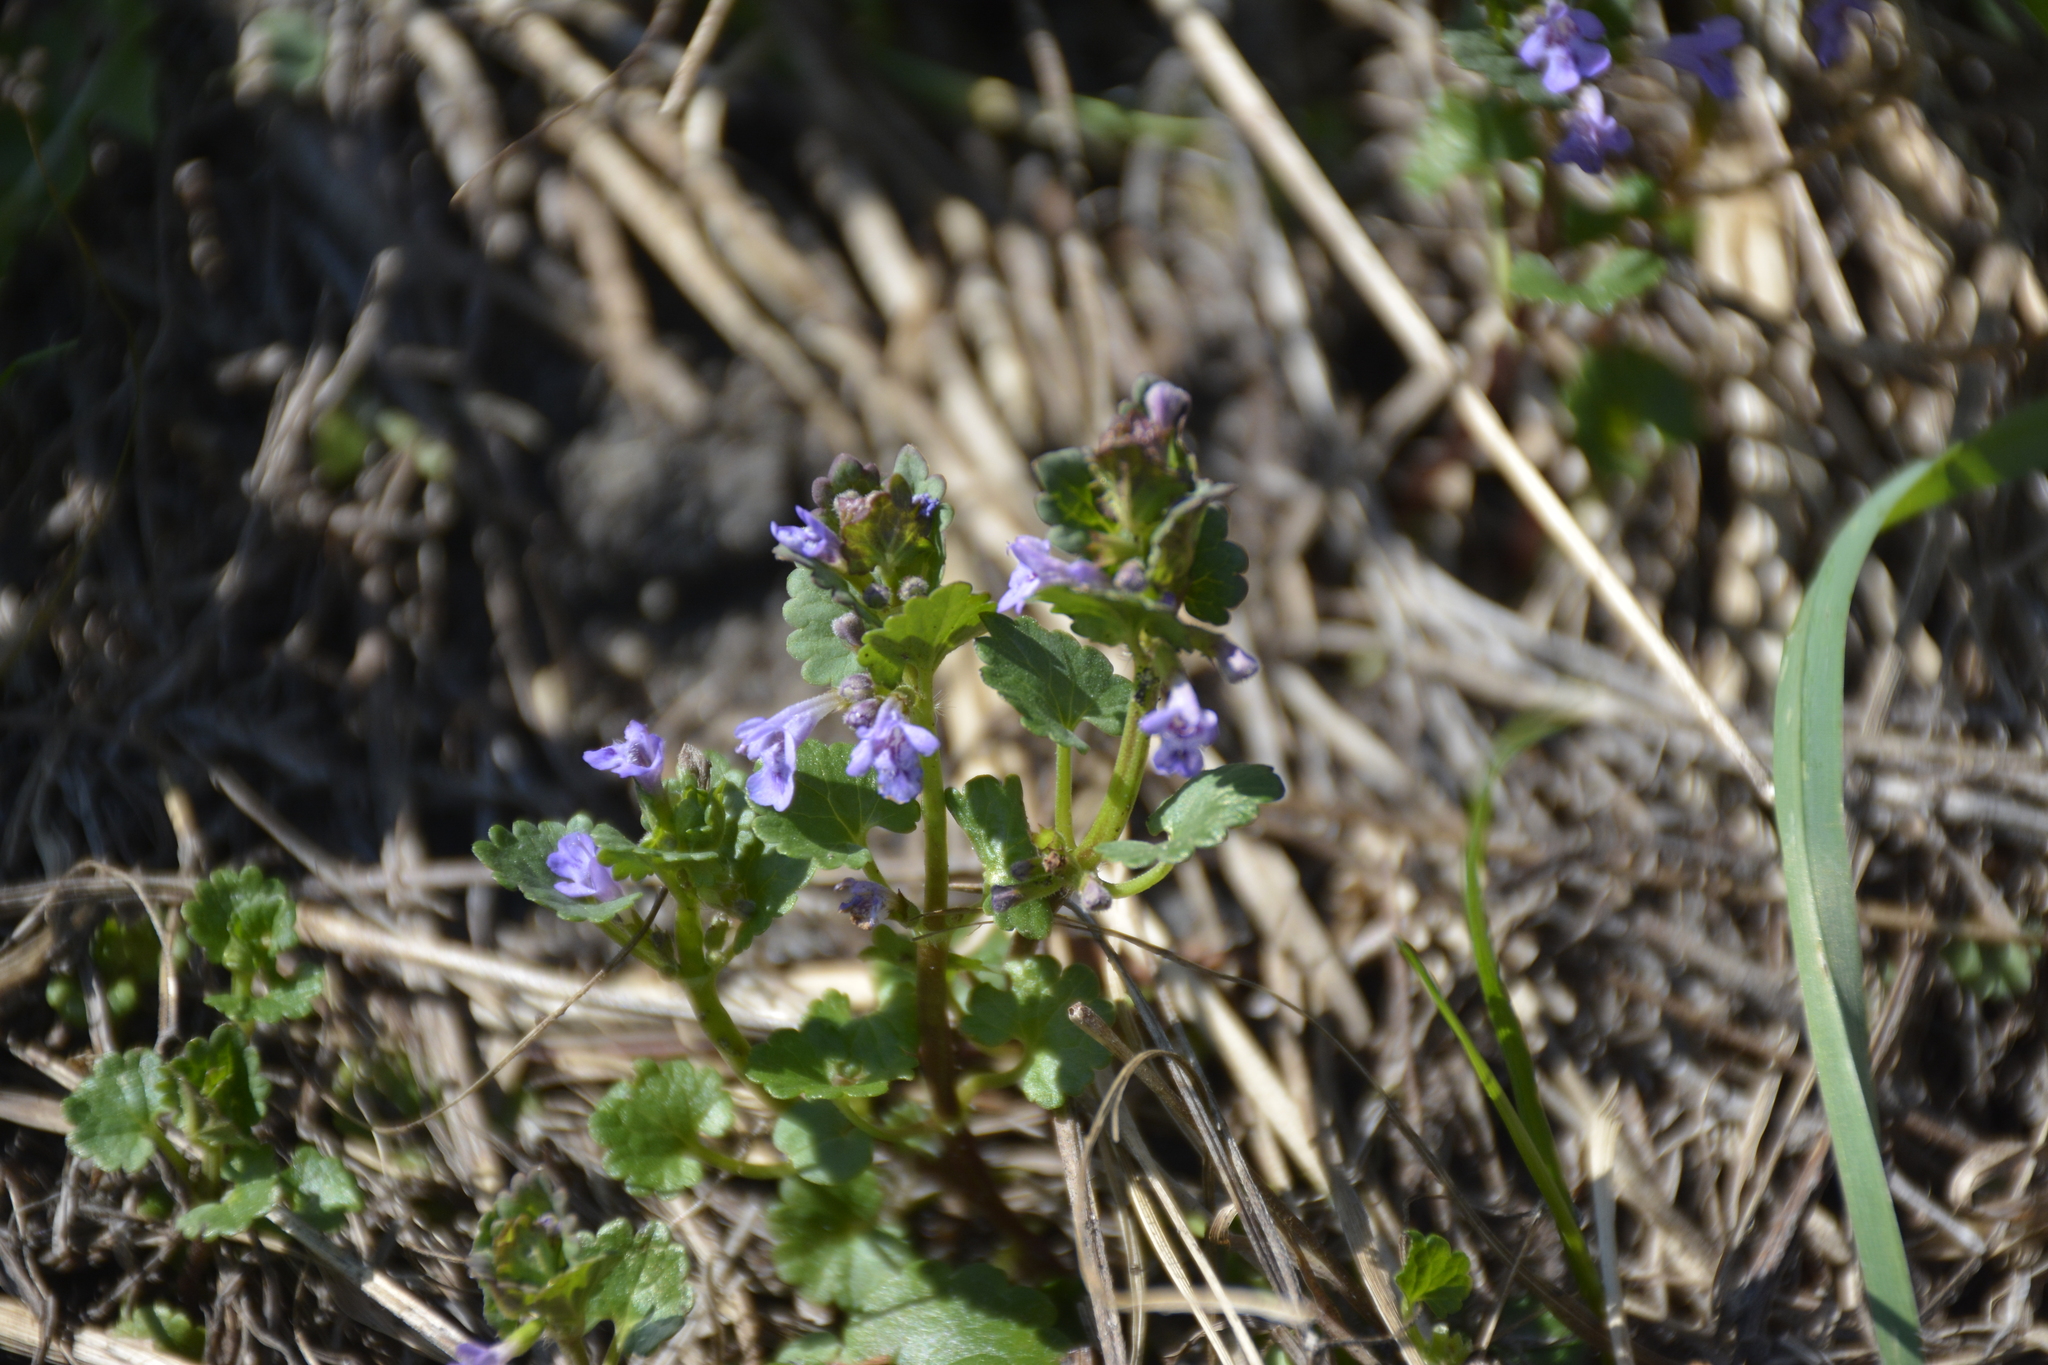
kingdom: Plantae
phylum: Tracheophyta
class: Magnoliopsida
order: Lamiales
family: Lamiaceae
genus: Glechoma
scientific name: Glechoma hederacea
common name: Ground ivy
